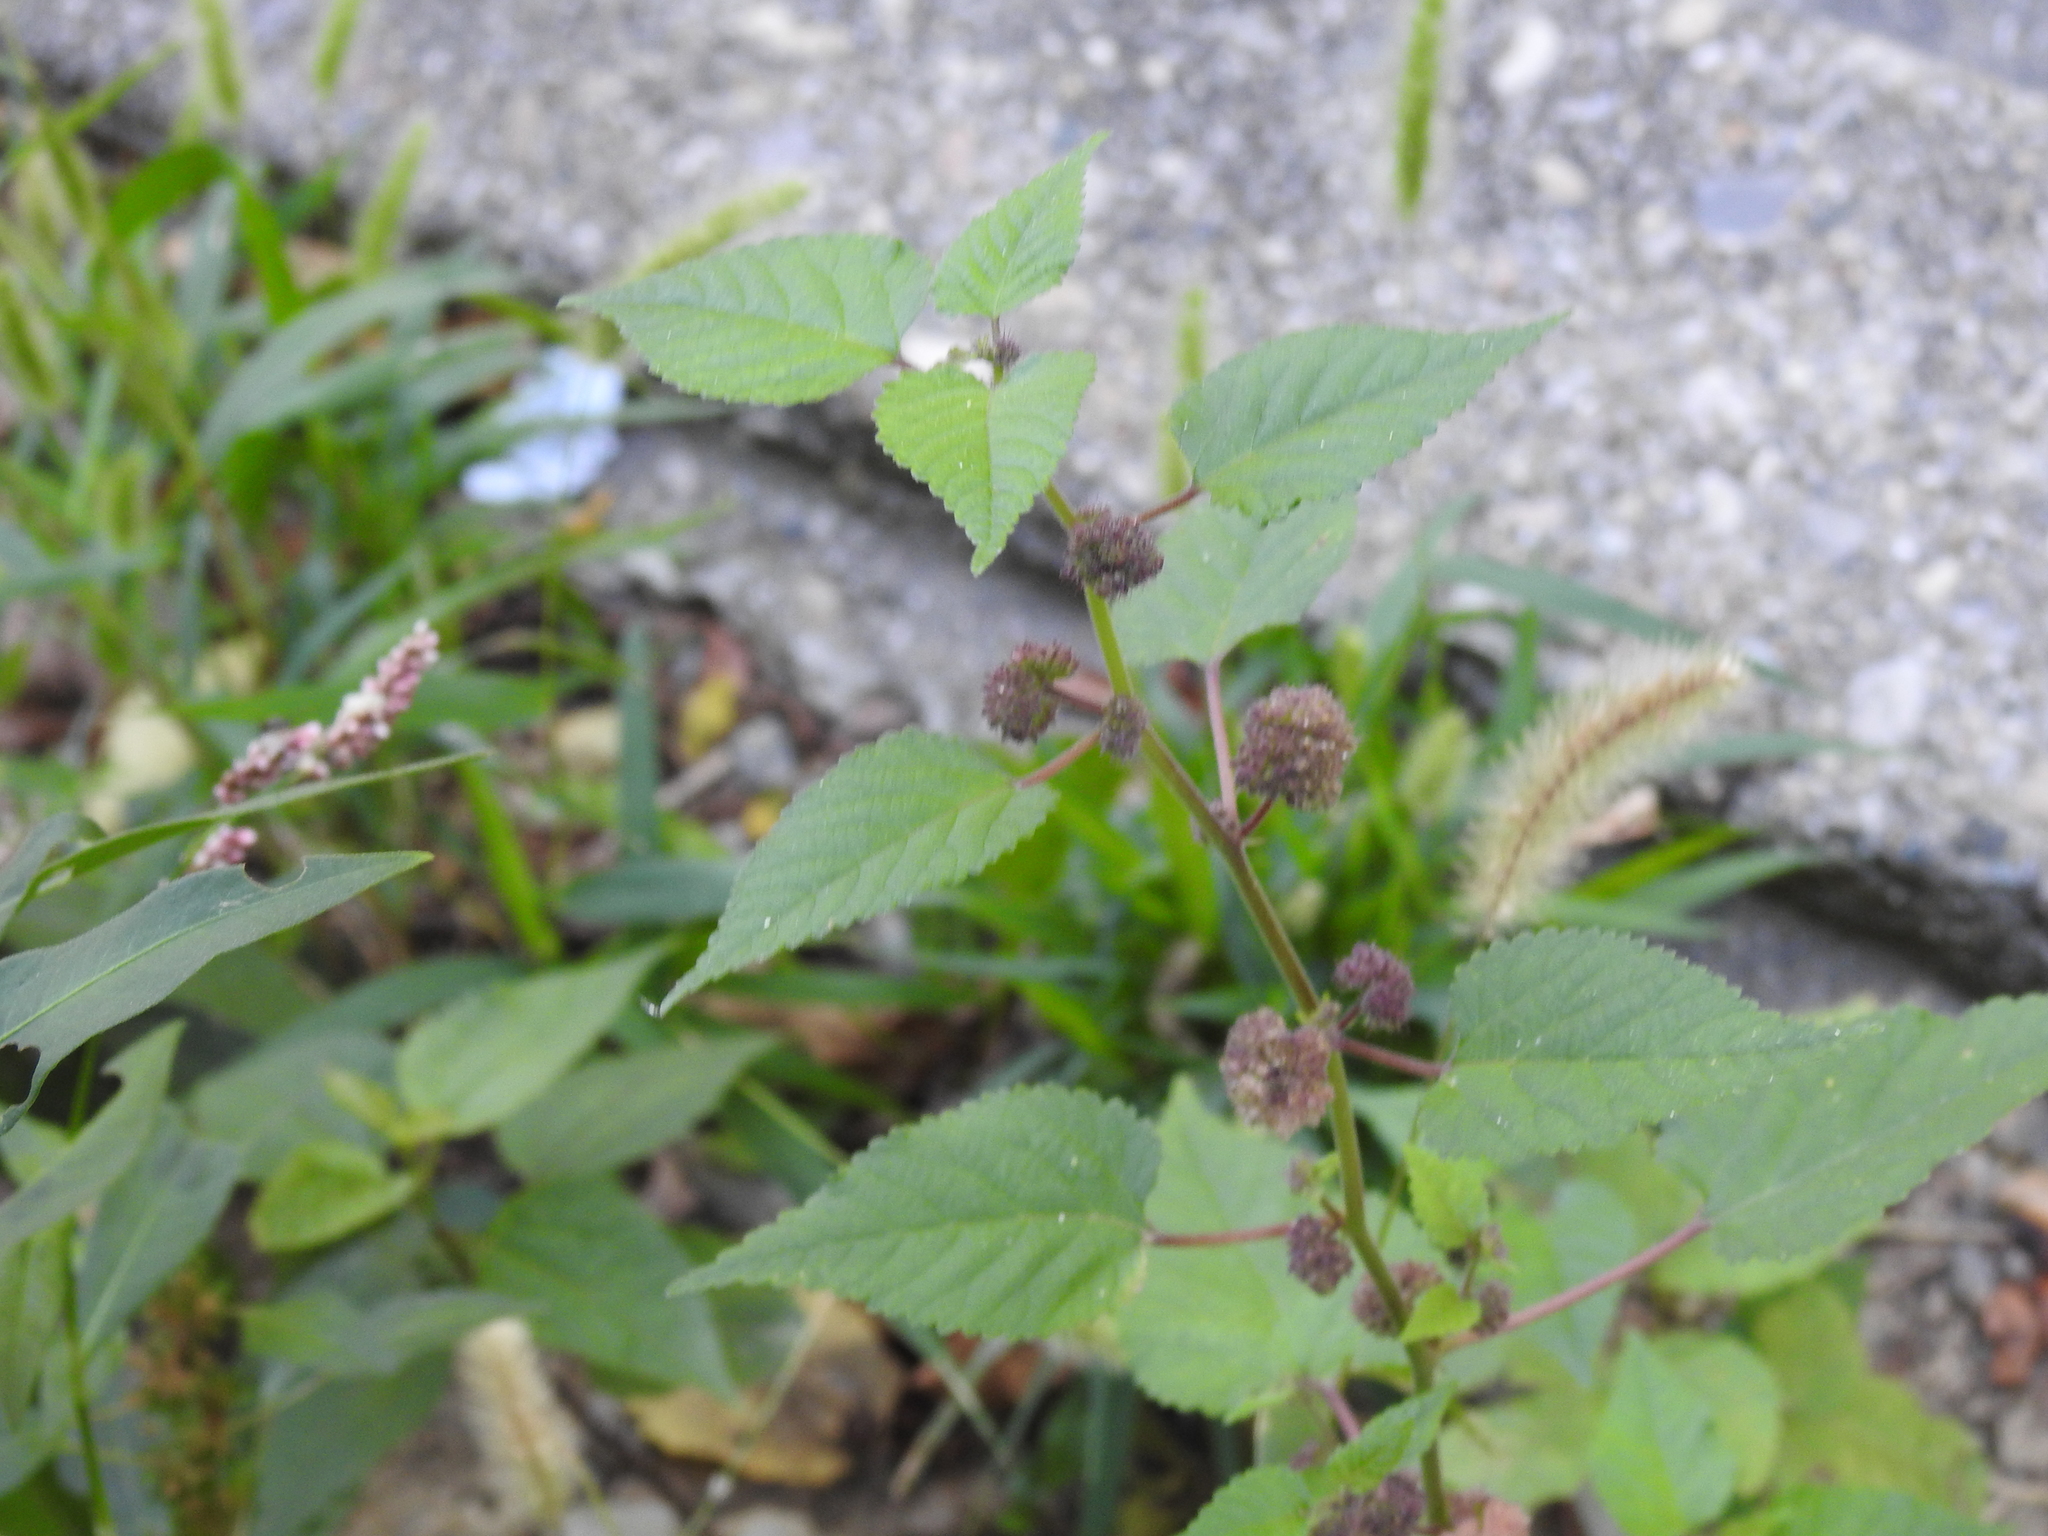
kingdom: Plantae
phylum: Tracheophyta
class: Magnoliopsida
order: Rosales
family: Moraceae
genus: Fatoua
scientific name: Fatoua villosa
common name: Hairy crabweed
